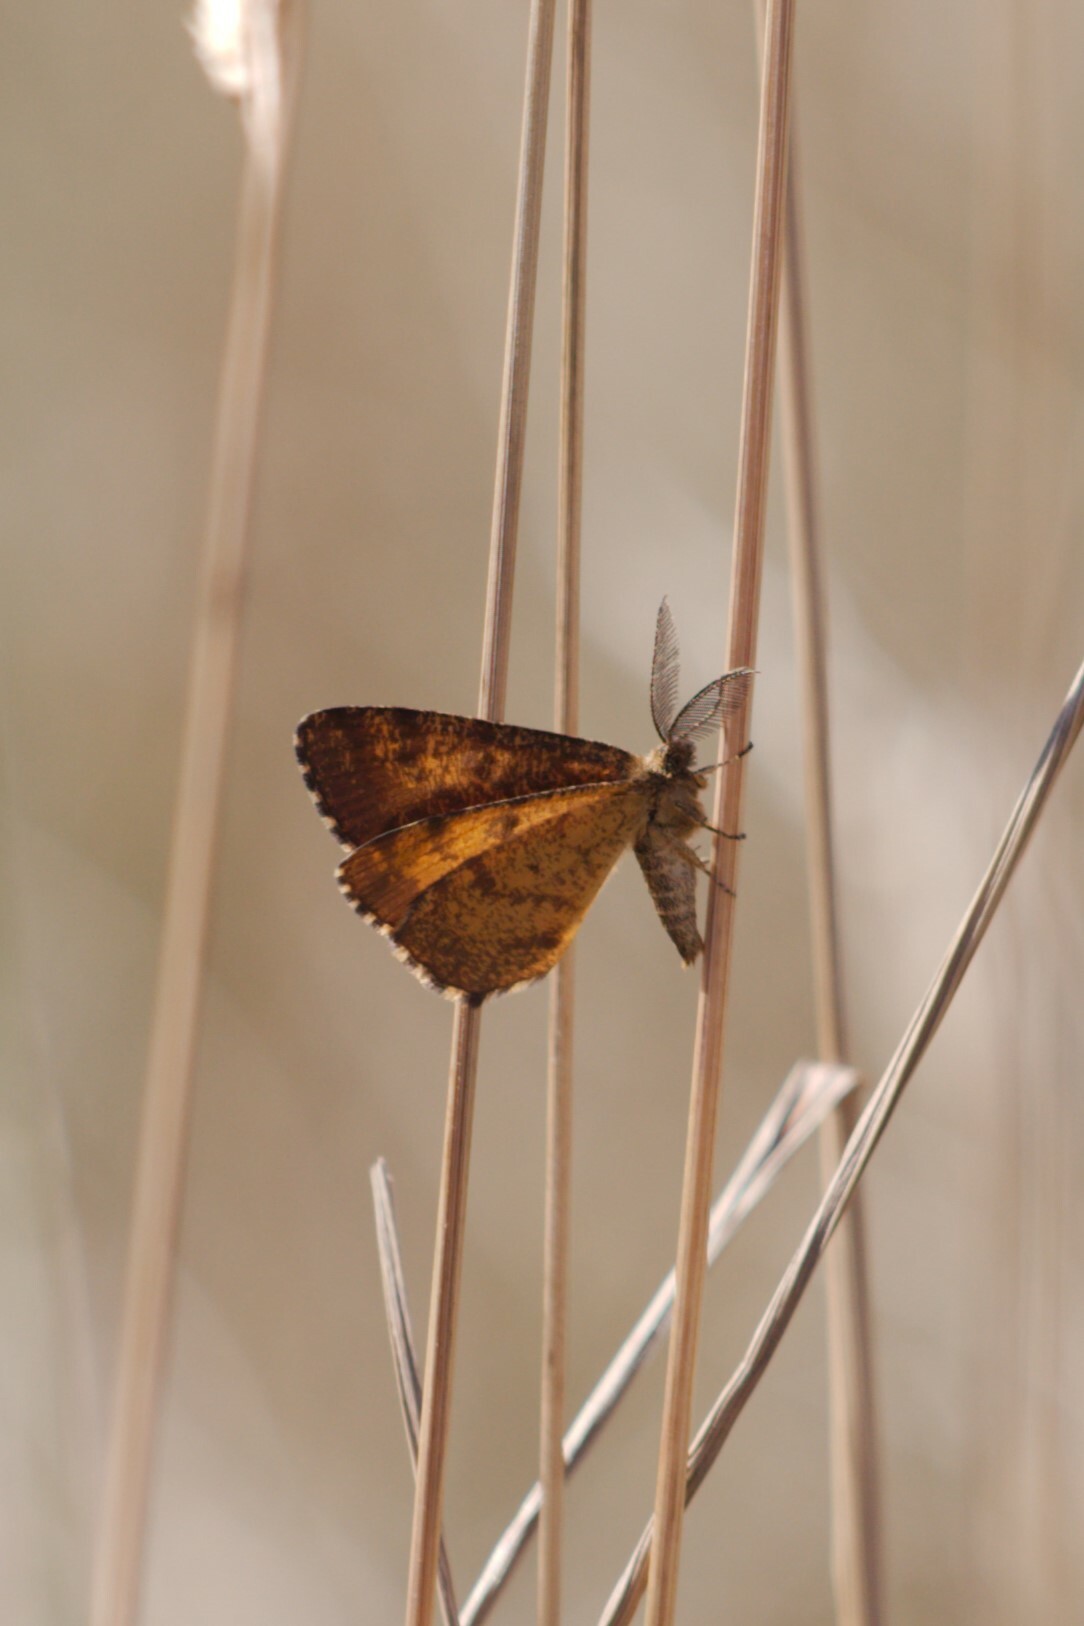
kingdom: Animalia
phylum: Arthropoda
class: Insecta
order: Lepidoptera
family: Geometridae
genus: Ematurga
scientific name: Ematurga atomaria
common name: Common heath
